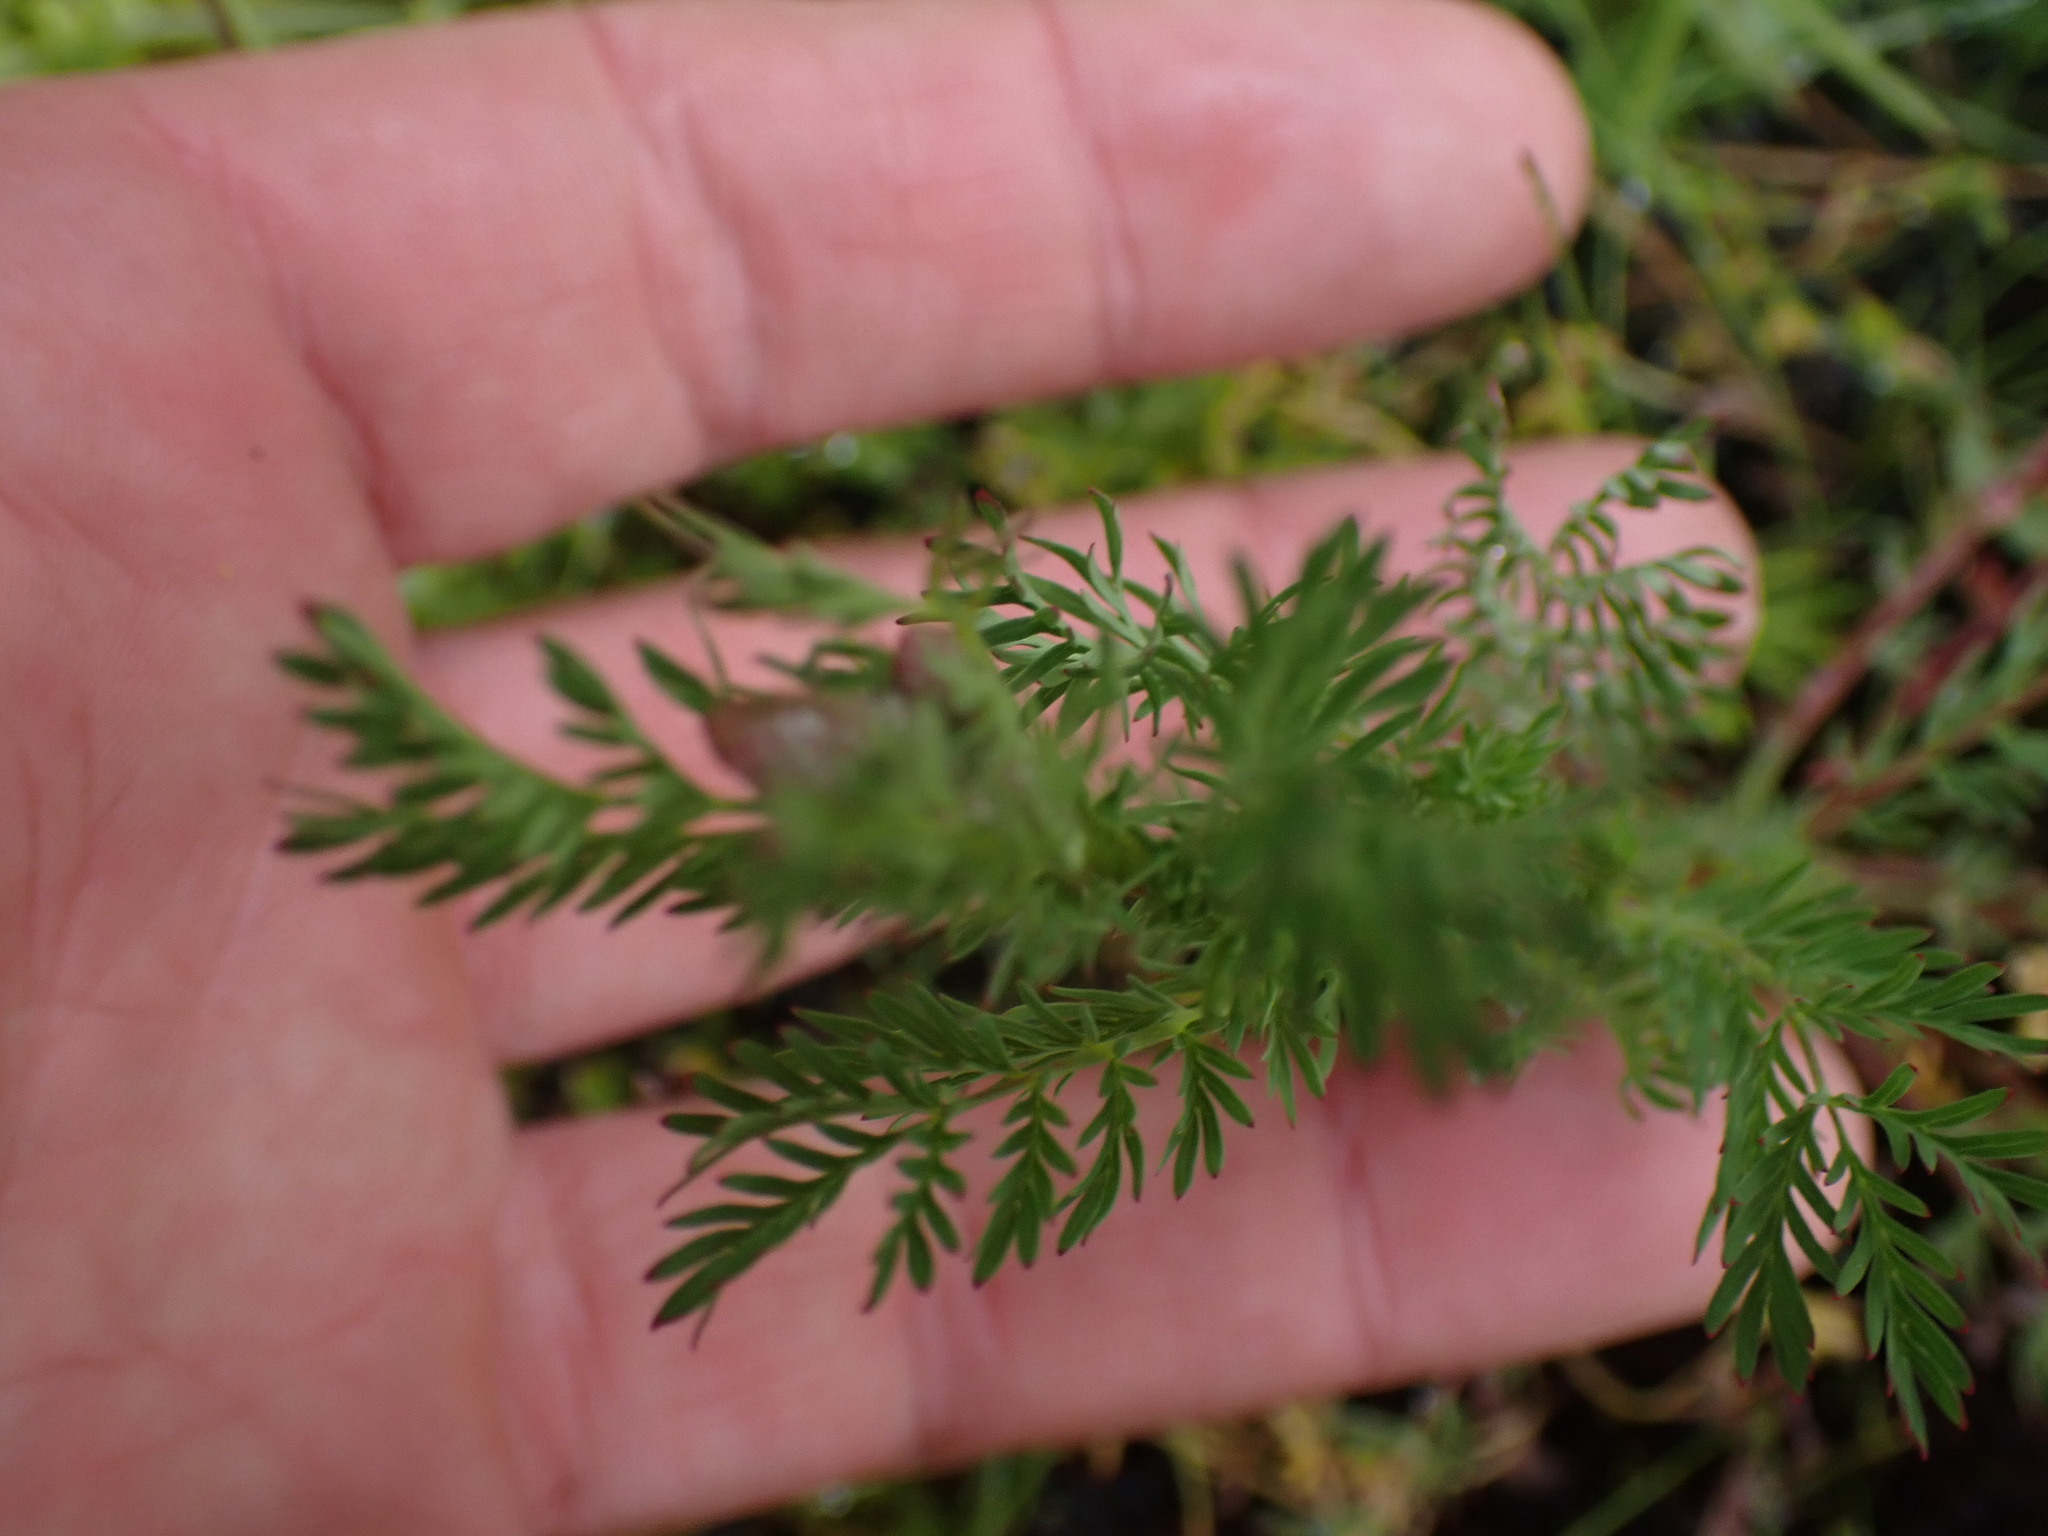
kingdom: Plantae
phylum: Tracheophyta
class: Magnoliopsida
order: Rosales
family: Rosaceae
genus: Poteridium
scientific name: Poteridium occidentale
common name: Western burnet
